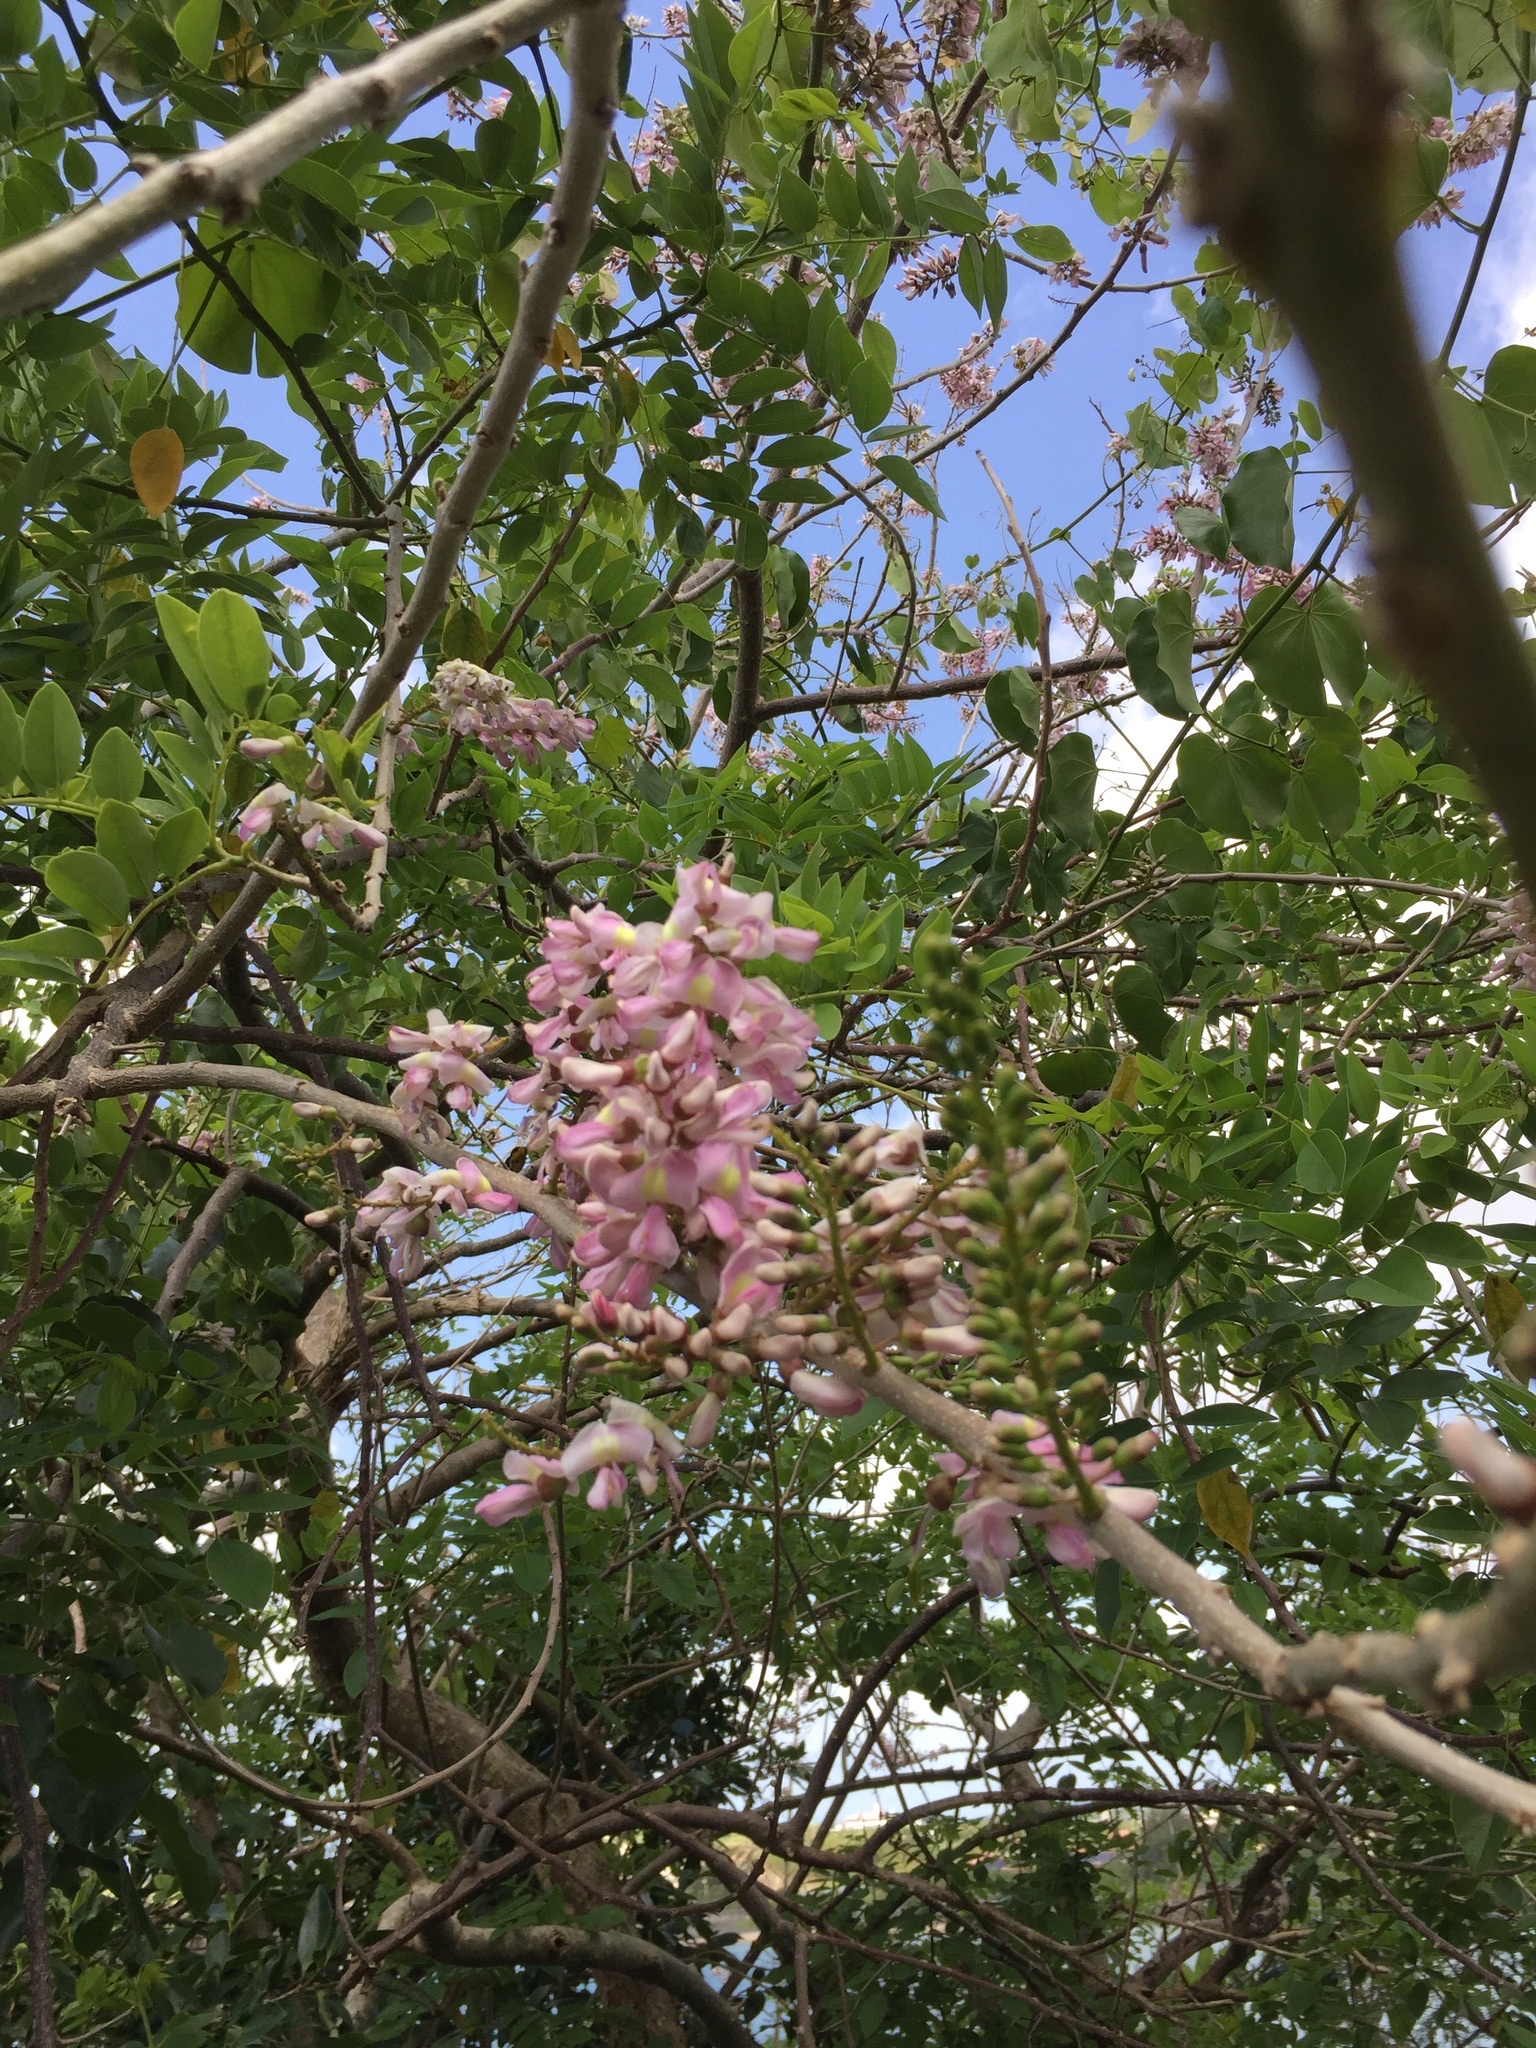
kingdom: Plantae
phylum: Tracheophyta
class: Magnoliopsida
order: Fabales
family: Fabaceae
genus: Robinia
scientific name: Robinia viscosa
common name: Clammy locust
